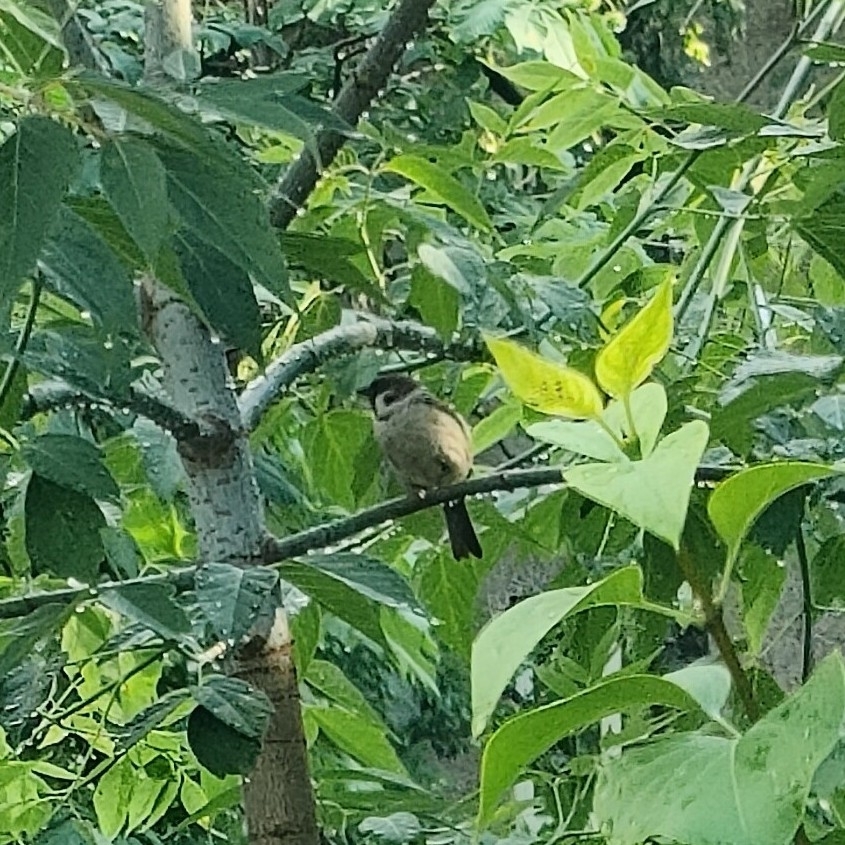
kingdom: Animalia
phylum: Chordata
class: Aves
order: Passeriformes
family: Passeridae
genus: Passer
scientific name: Passer montanus
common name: Eurasian tree sparrow
